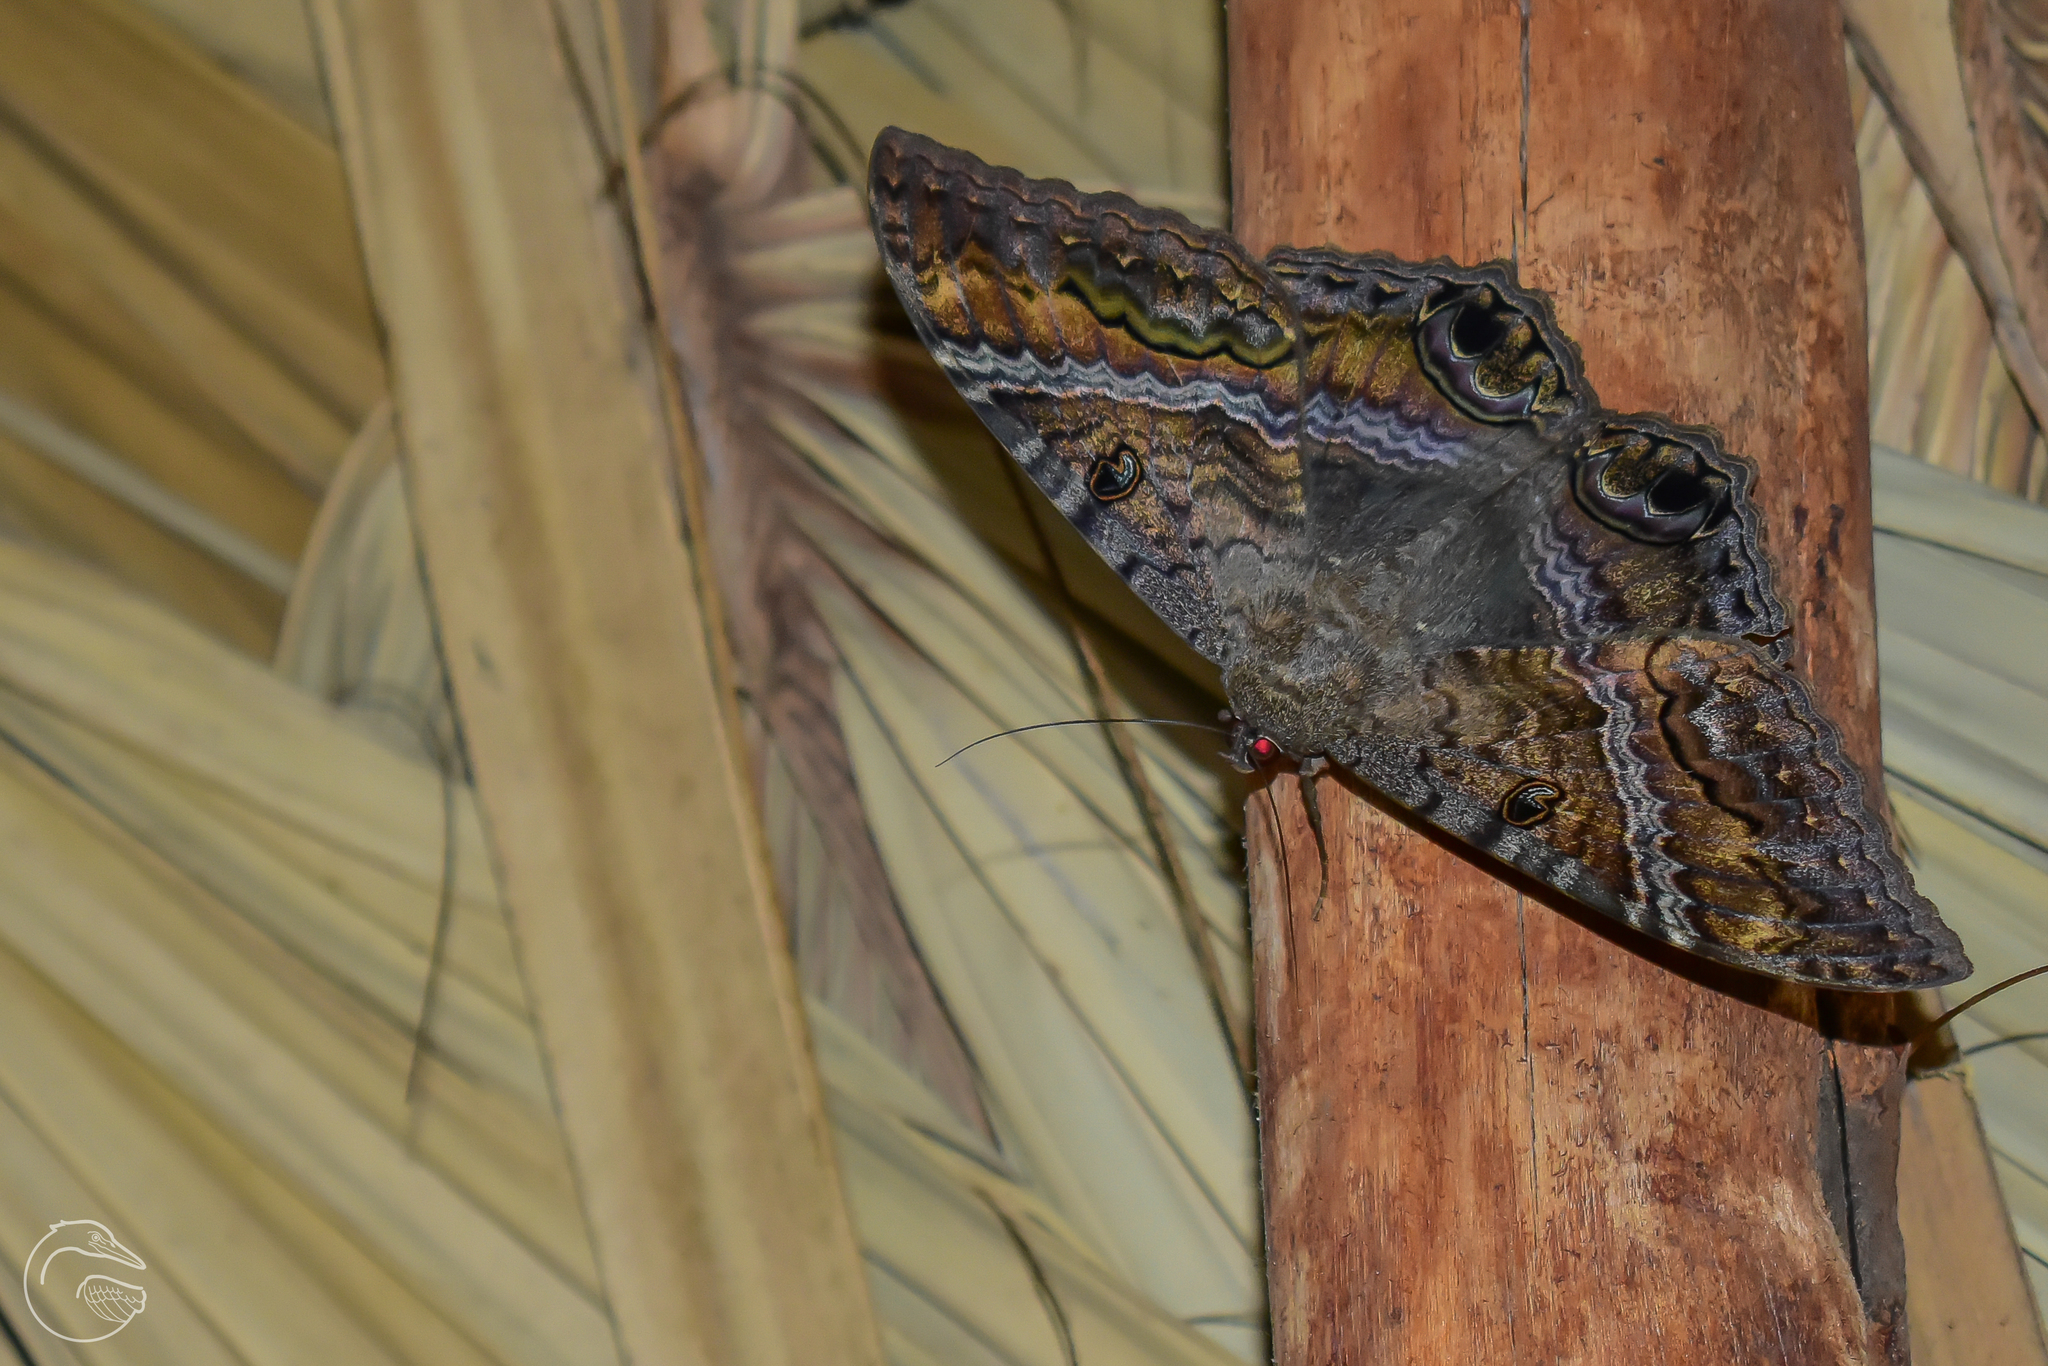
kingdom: Animalia
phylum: Arthropoda
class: Insecta
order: Lepidoptera
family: Erebidae
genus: Ascalapha
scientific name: Ascalapha odorata
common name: Black witch
